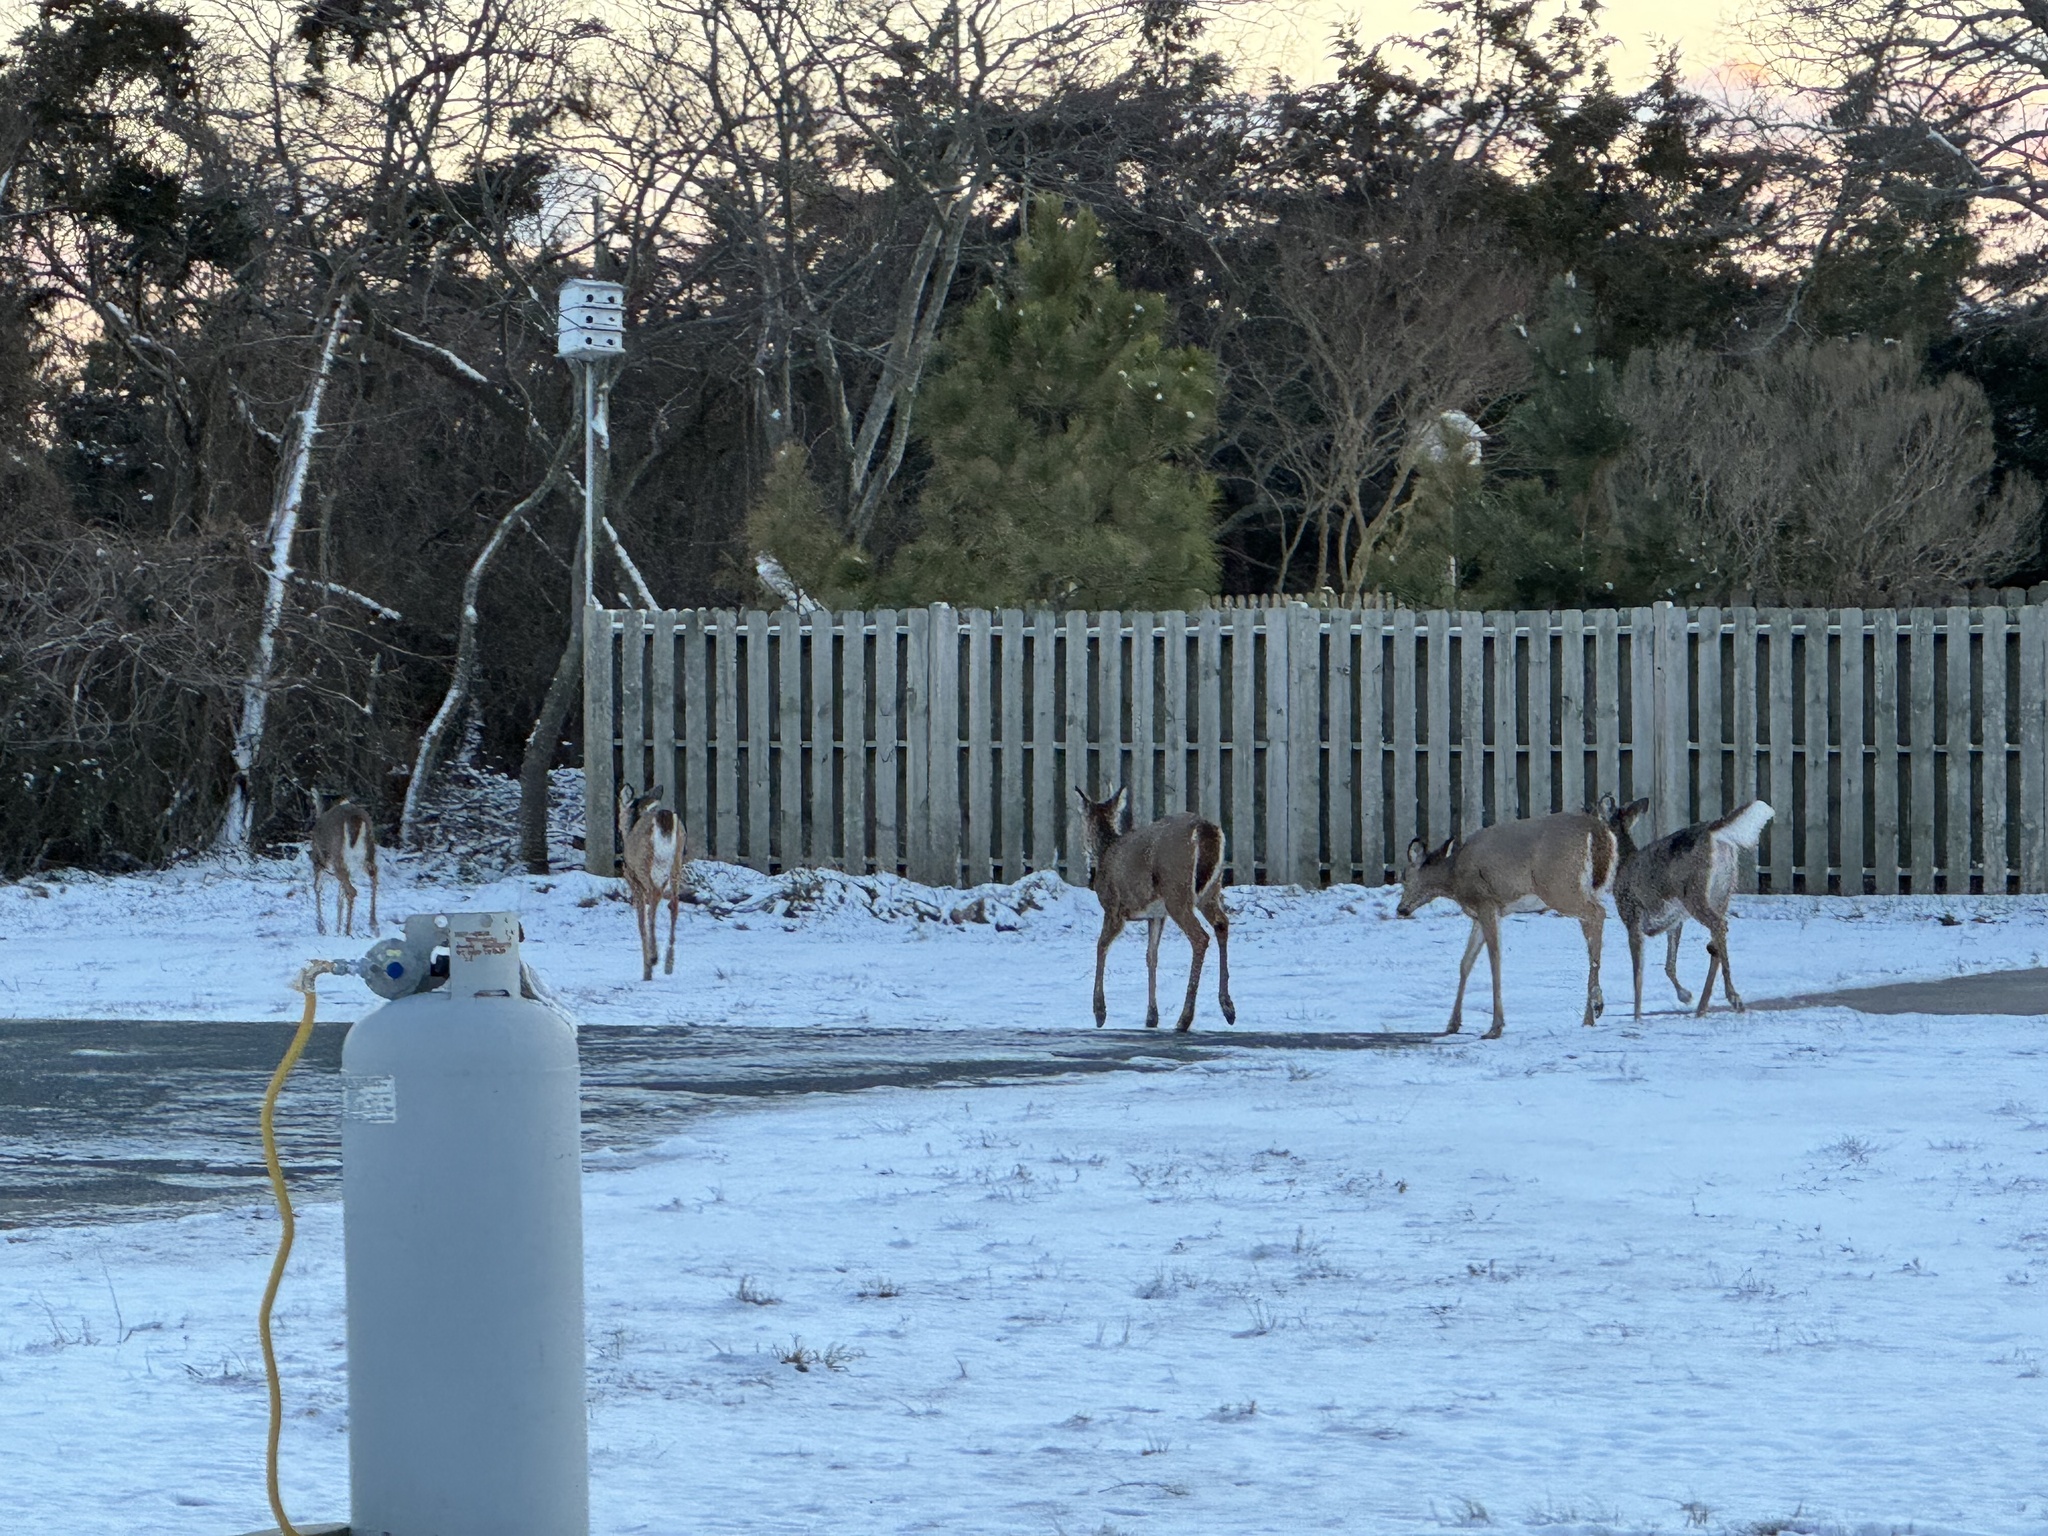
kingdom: Animalia
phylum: Chordata
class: Mammalia
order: Artiodactyla
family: Cervidae
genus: Odocoileus
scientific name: Odocoileus virginianus
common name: White-tailed deer
